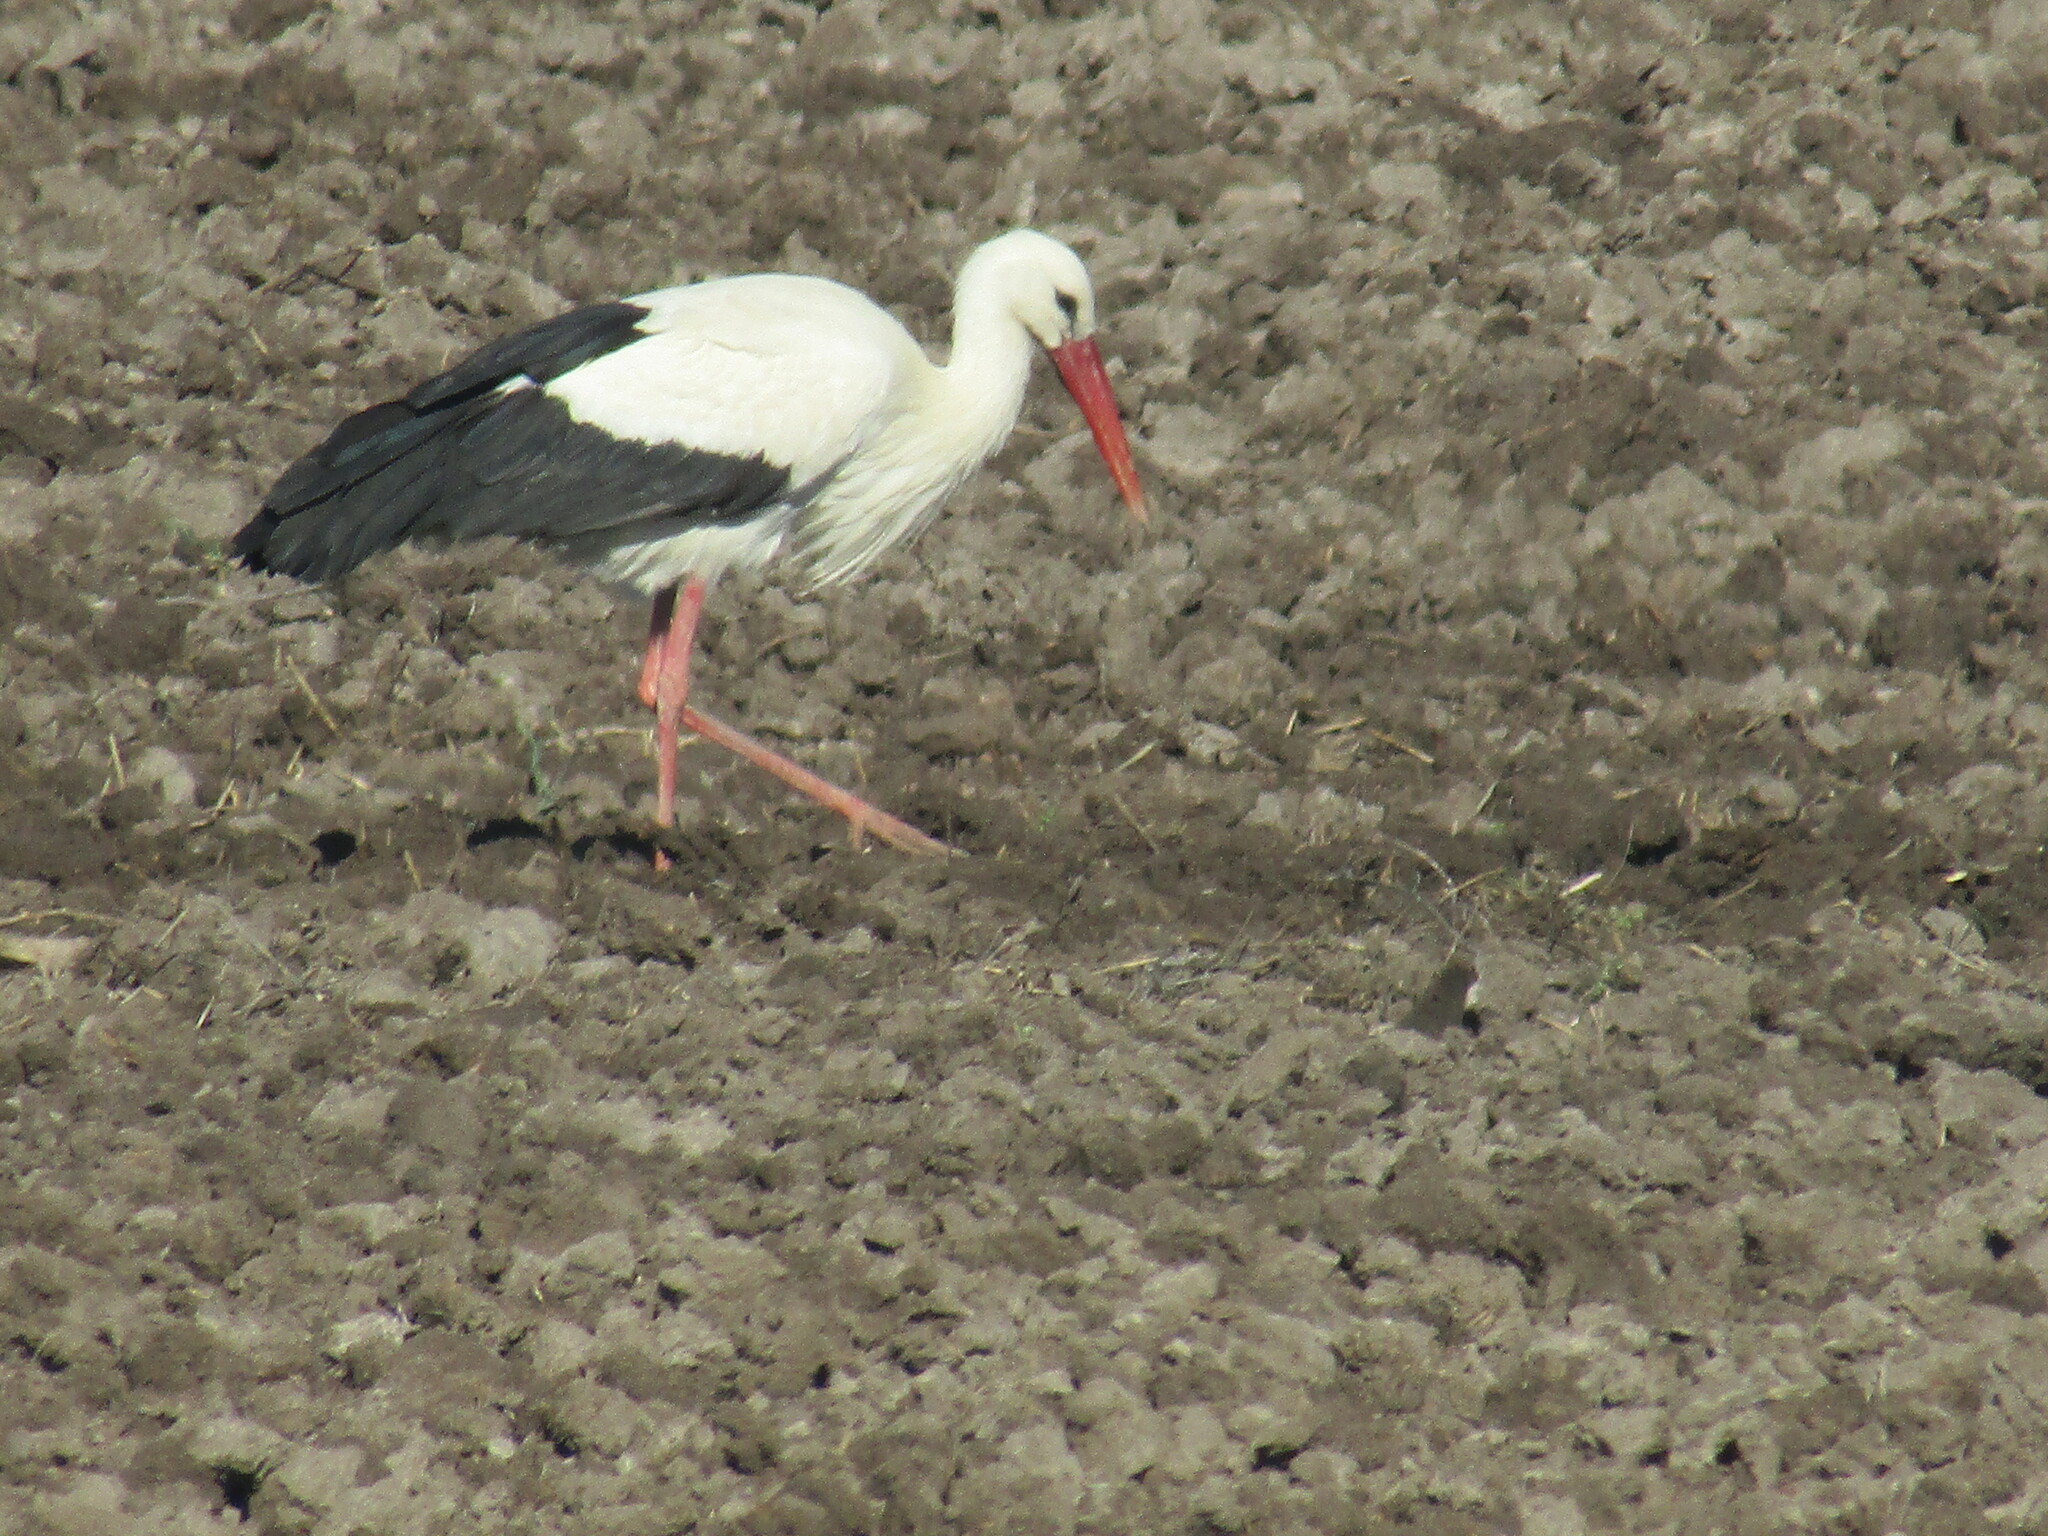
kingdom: Animalia
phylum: Chordata
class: Aves
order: Ciconiiformes
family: Ciconiidae
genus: Ciconia
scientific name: Ciconia ciconia
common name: White stork
